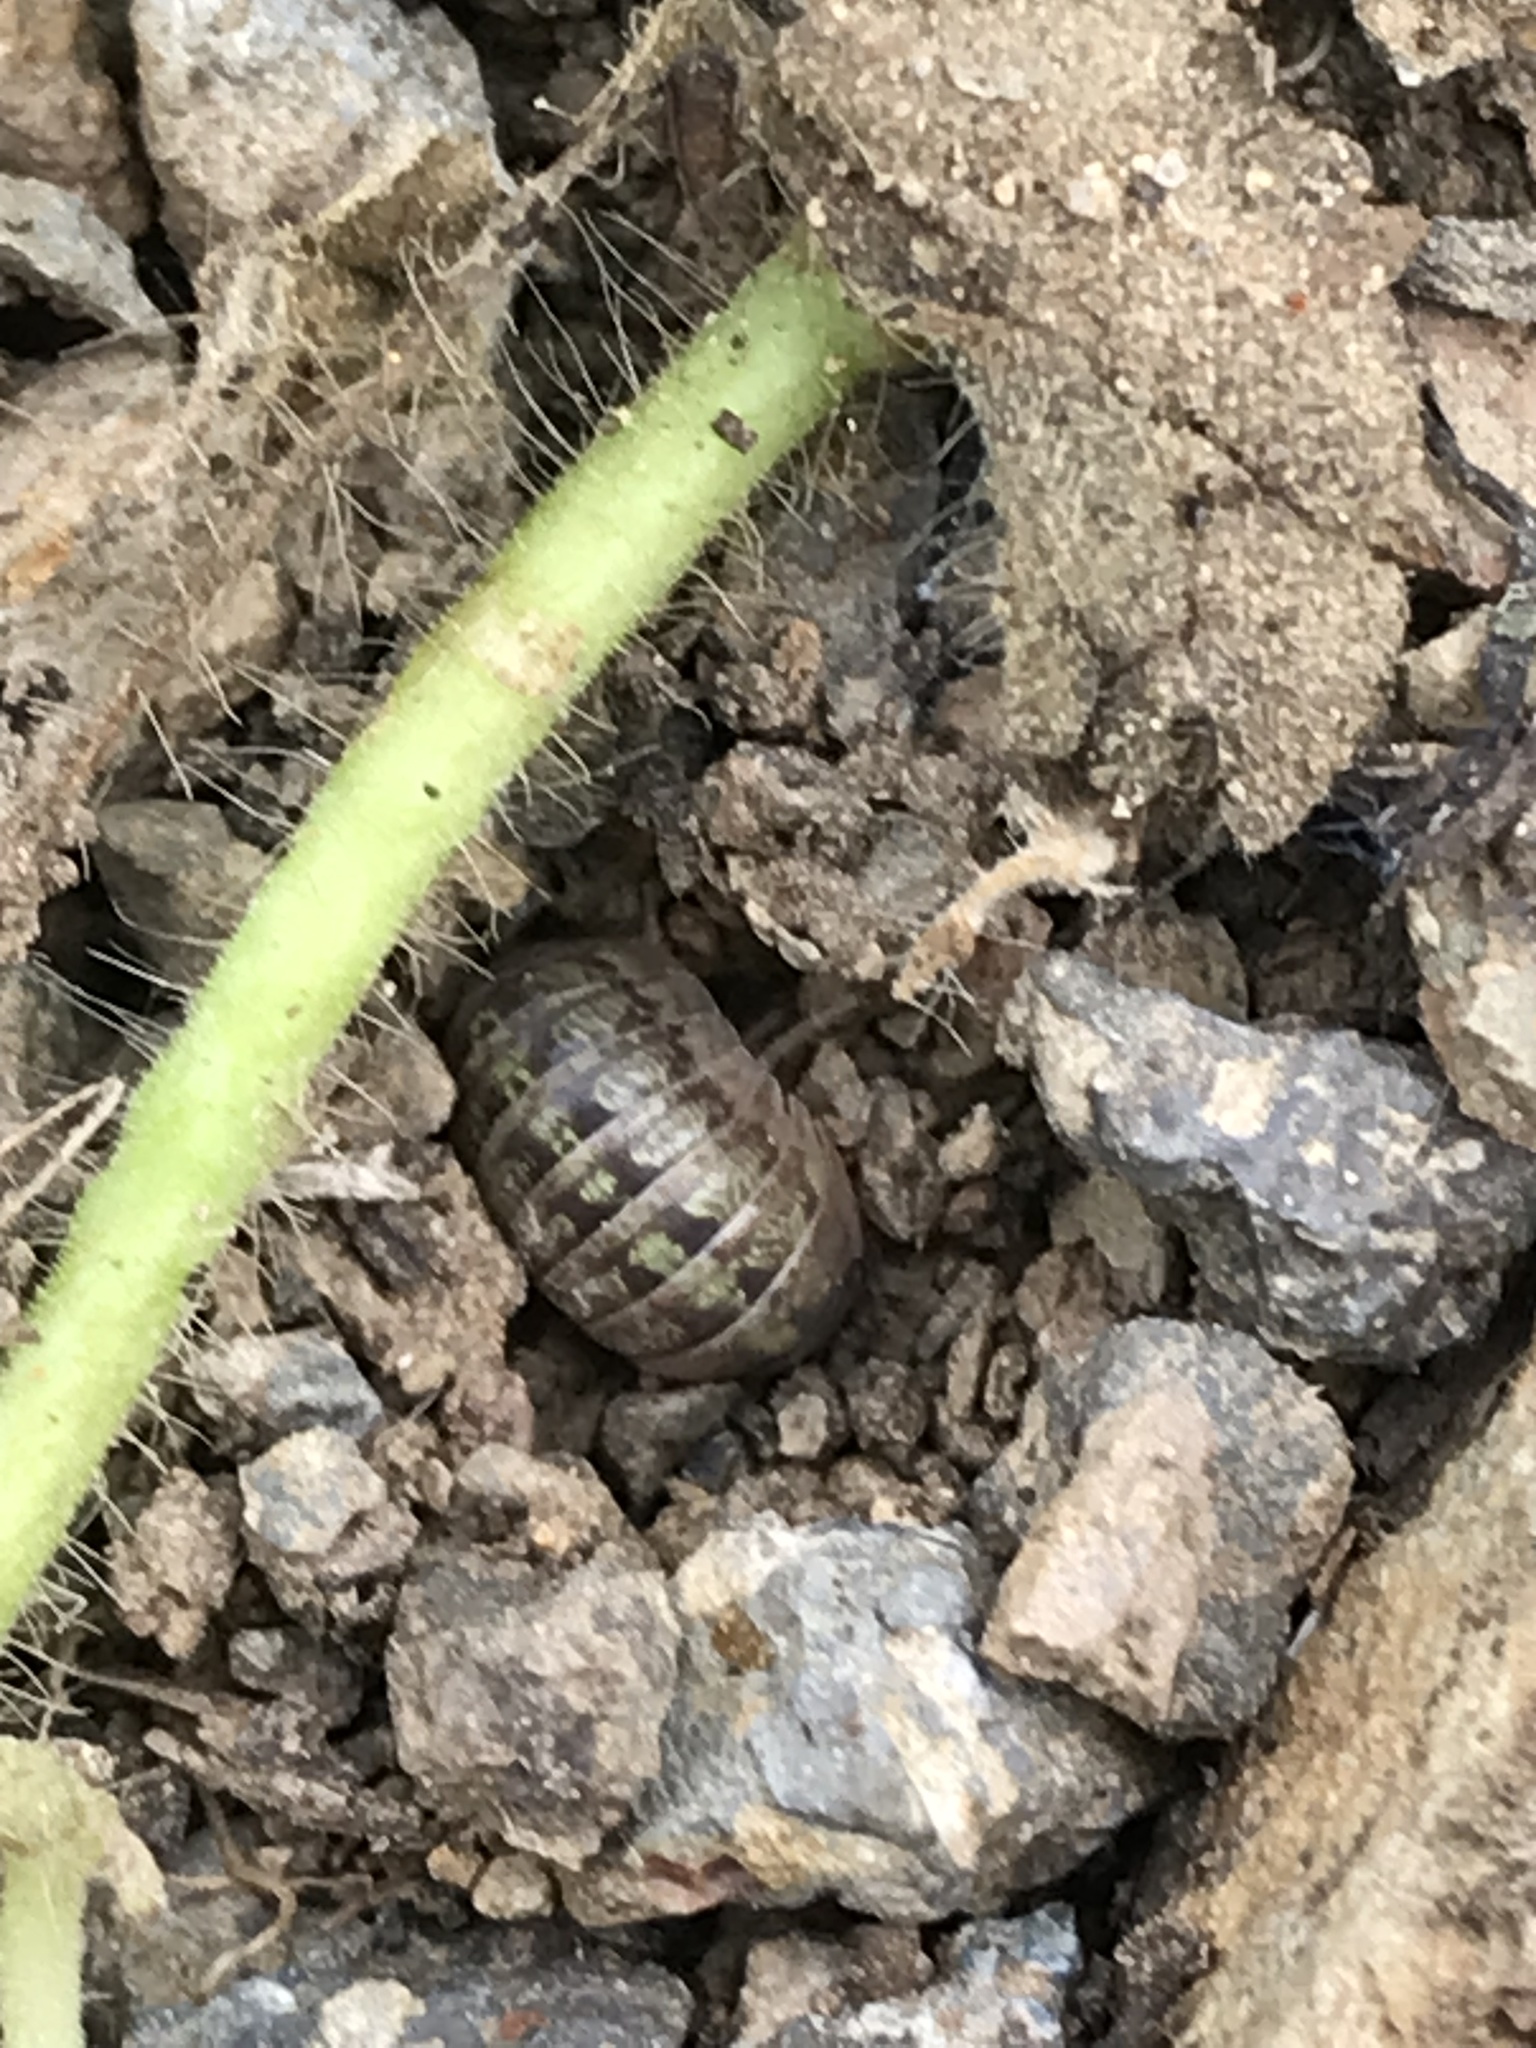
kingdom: Animalia
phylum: Arthropoda
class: Malacostraca
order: Isopoda
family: Armadillidiidae
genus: Armadillidium
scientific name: Armadillidium vulgare
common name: Common pill woodlouse
